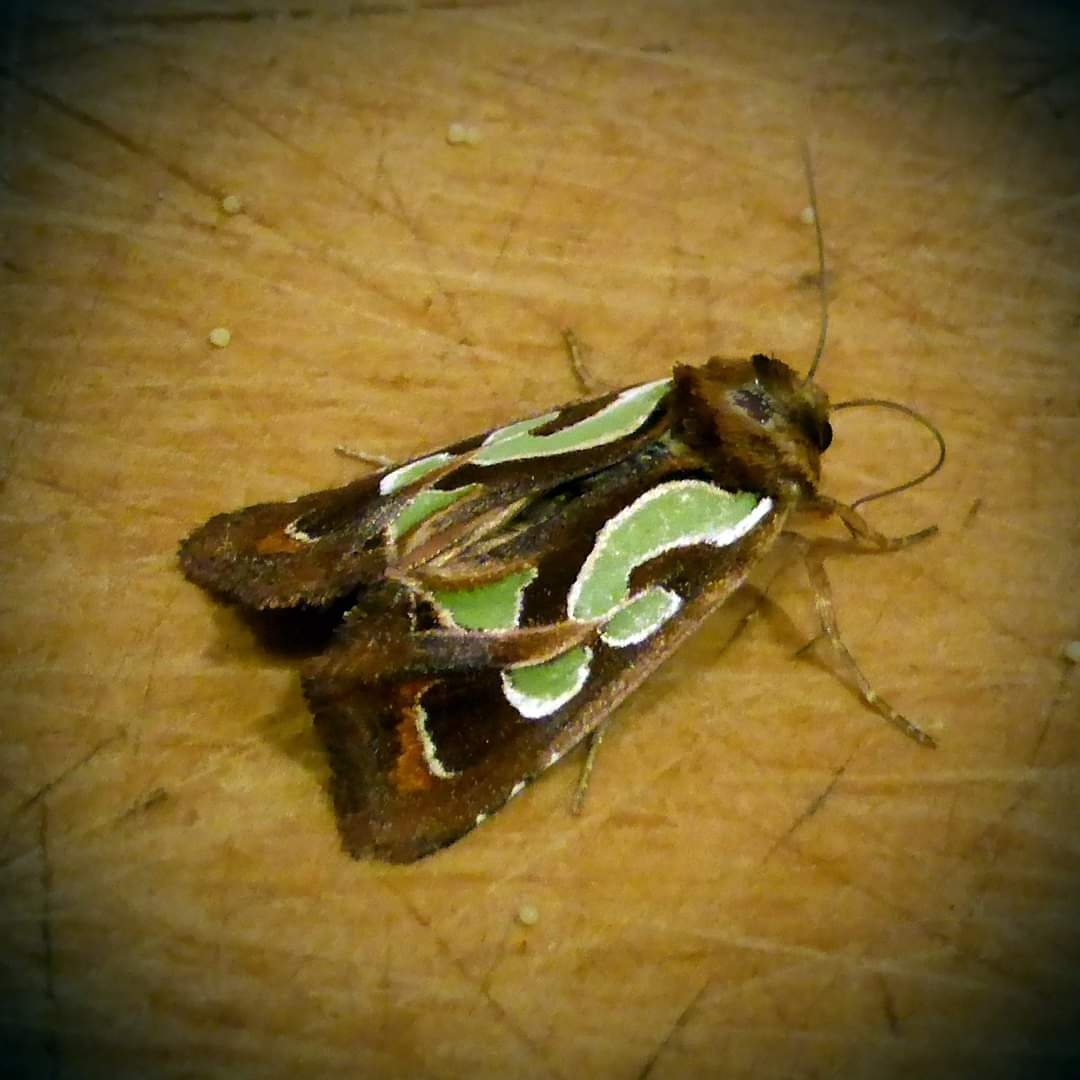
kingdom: Animalia
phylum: Arthropoda
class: Insecta
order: Lepidoptera
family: Noctuidae
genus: Cosmodes
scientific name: Cosmodes elegans
